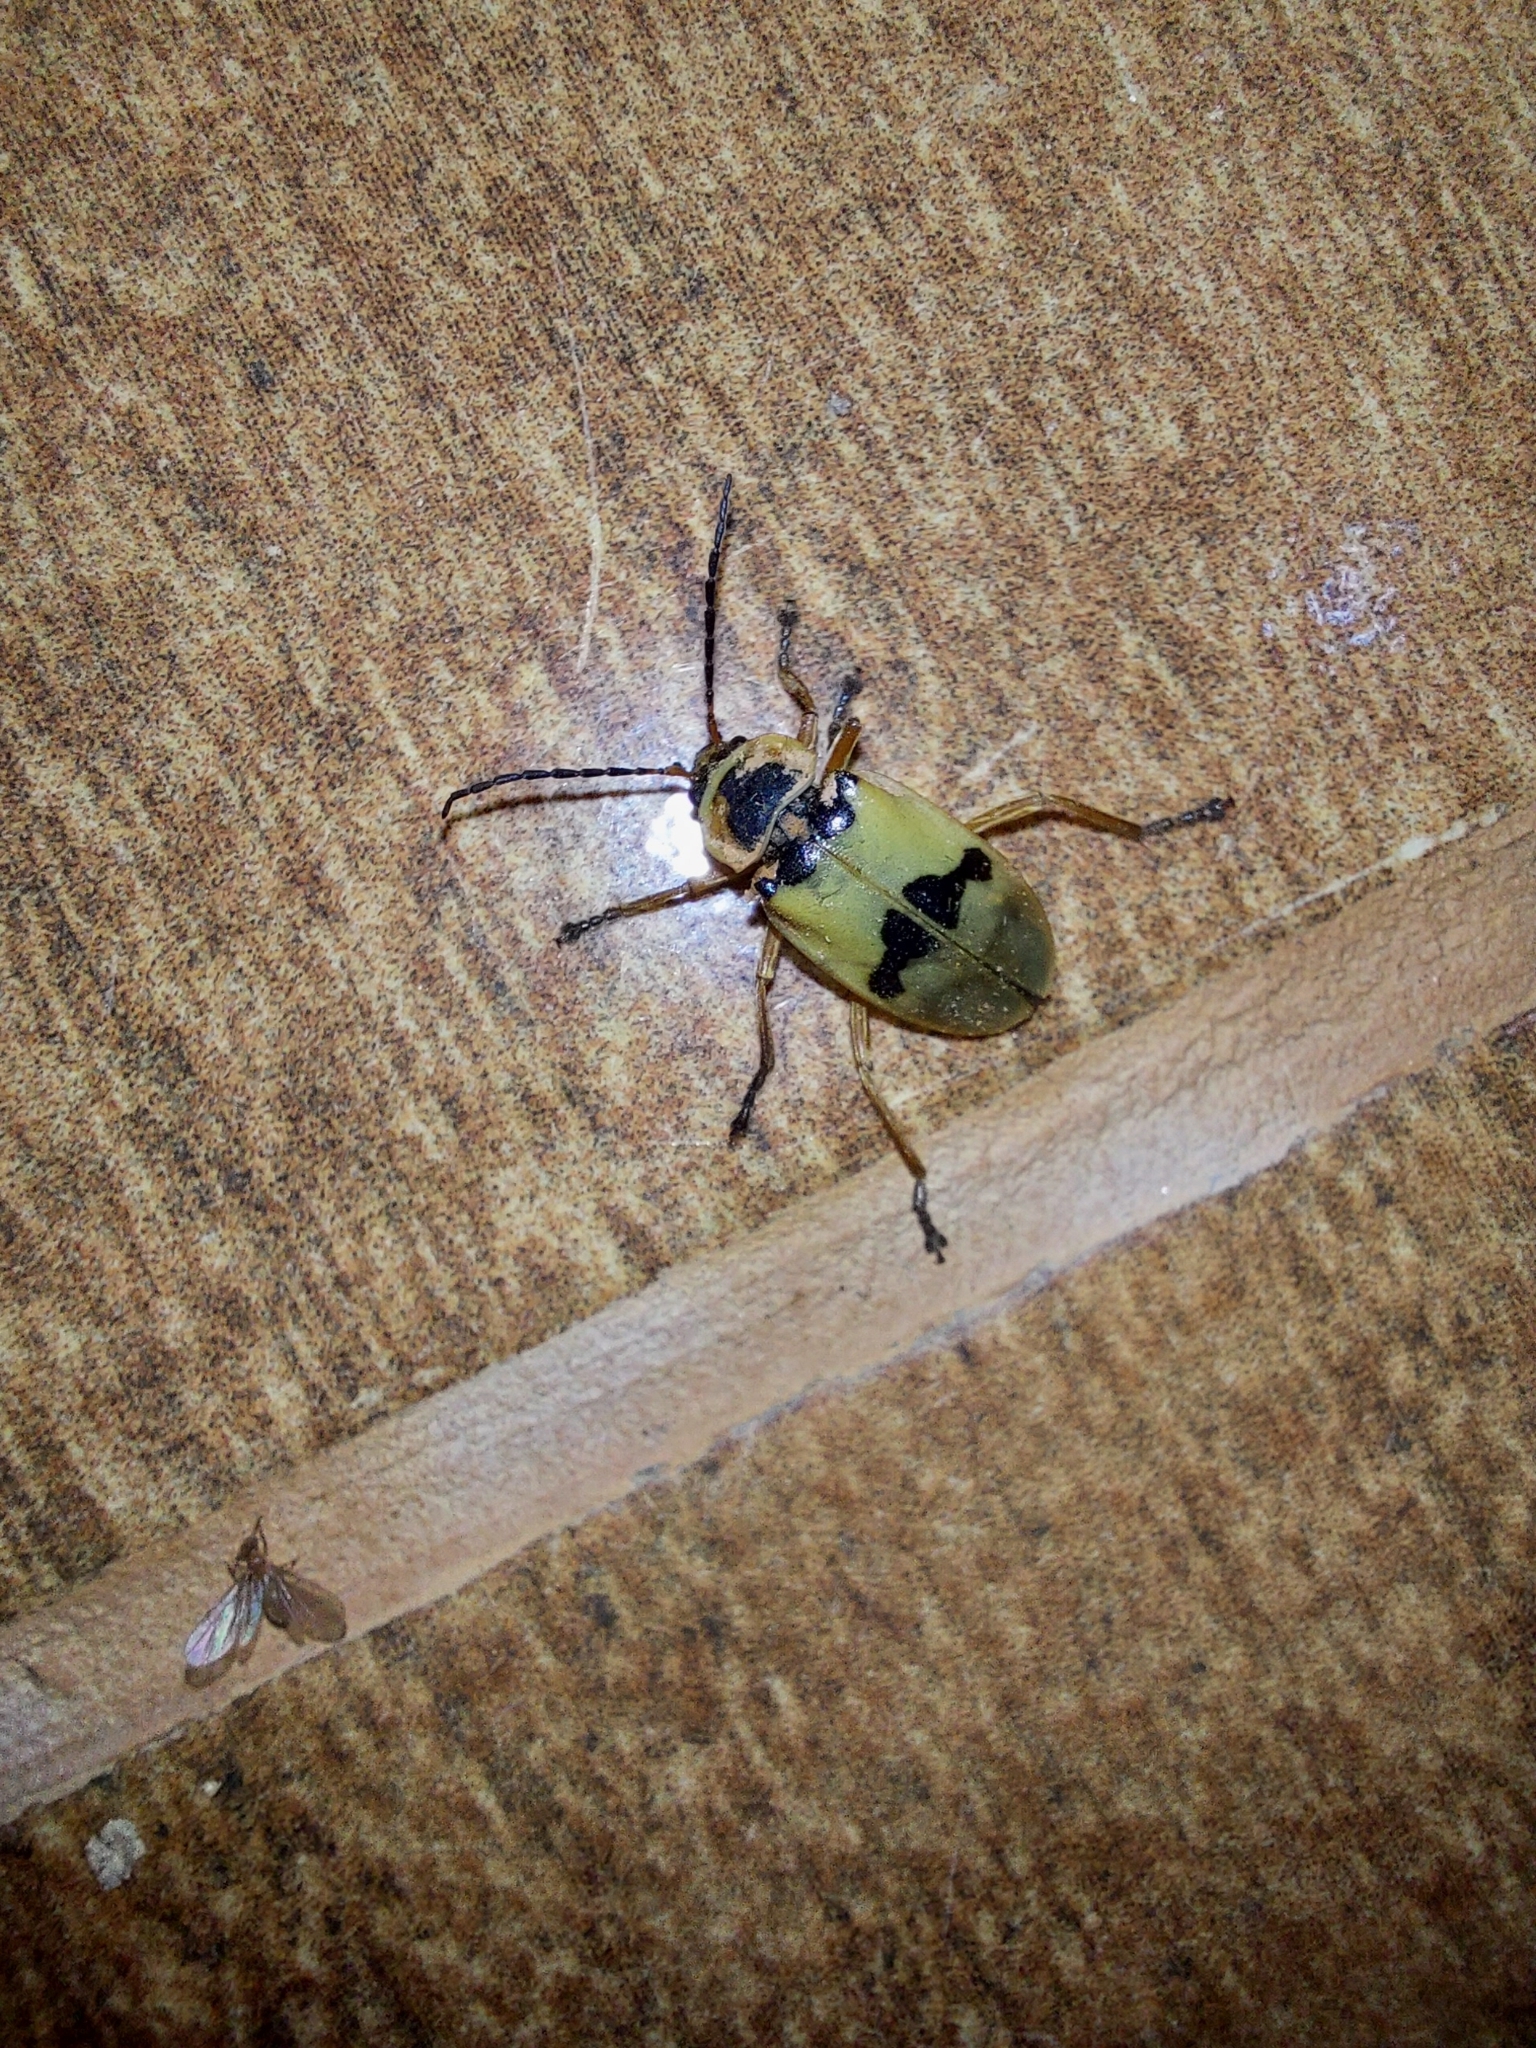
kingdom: Animalia
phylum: Arthropoda
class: Insecta
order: Coleoptera
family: Cantharidae
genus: Chauliognathus
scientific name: Chauliognathus
